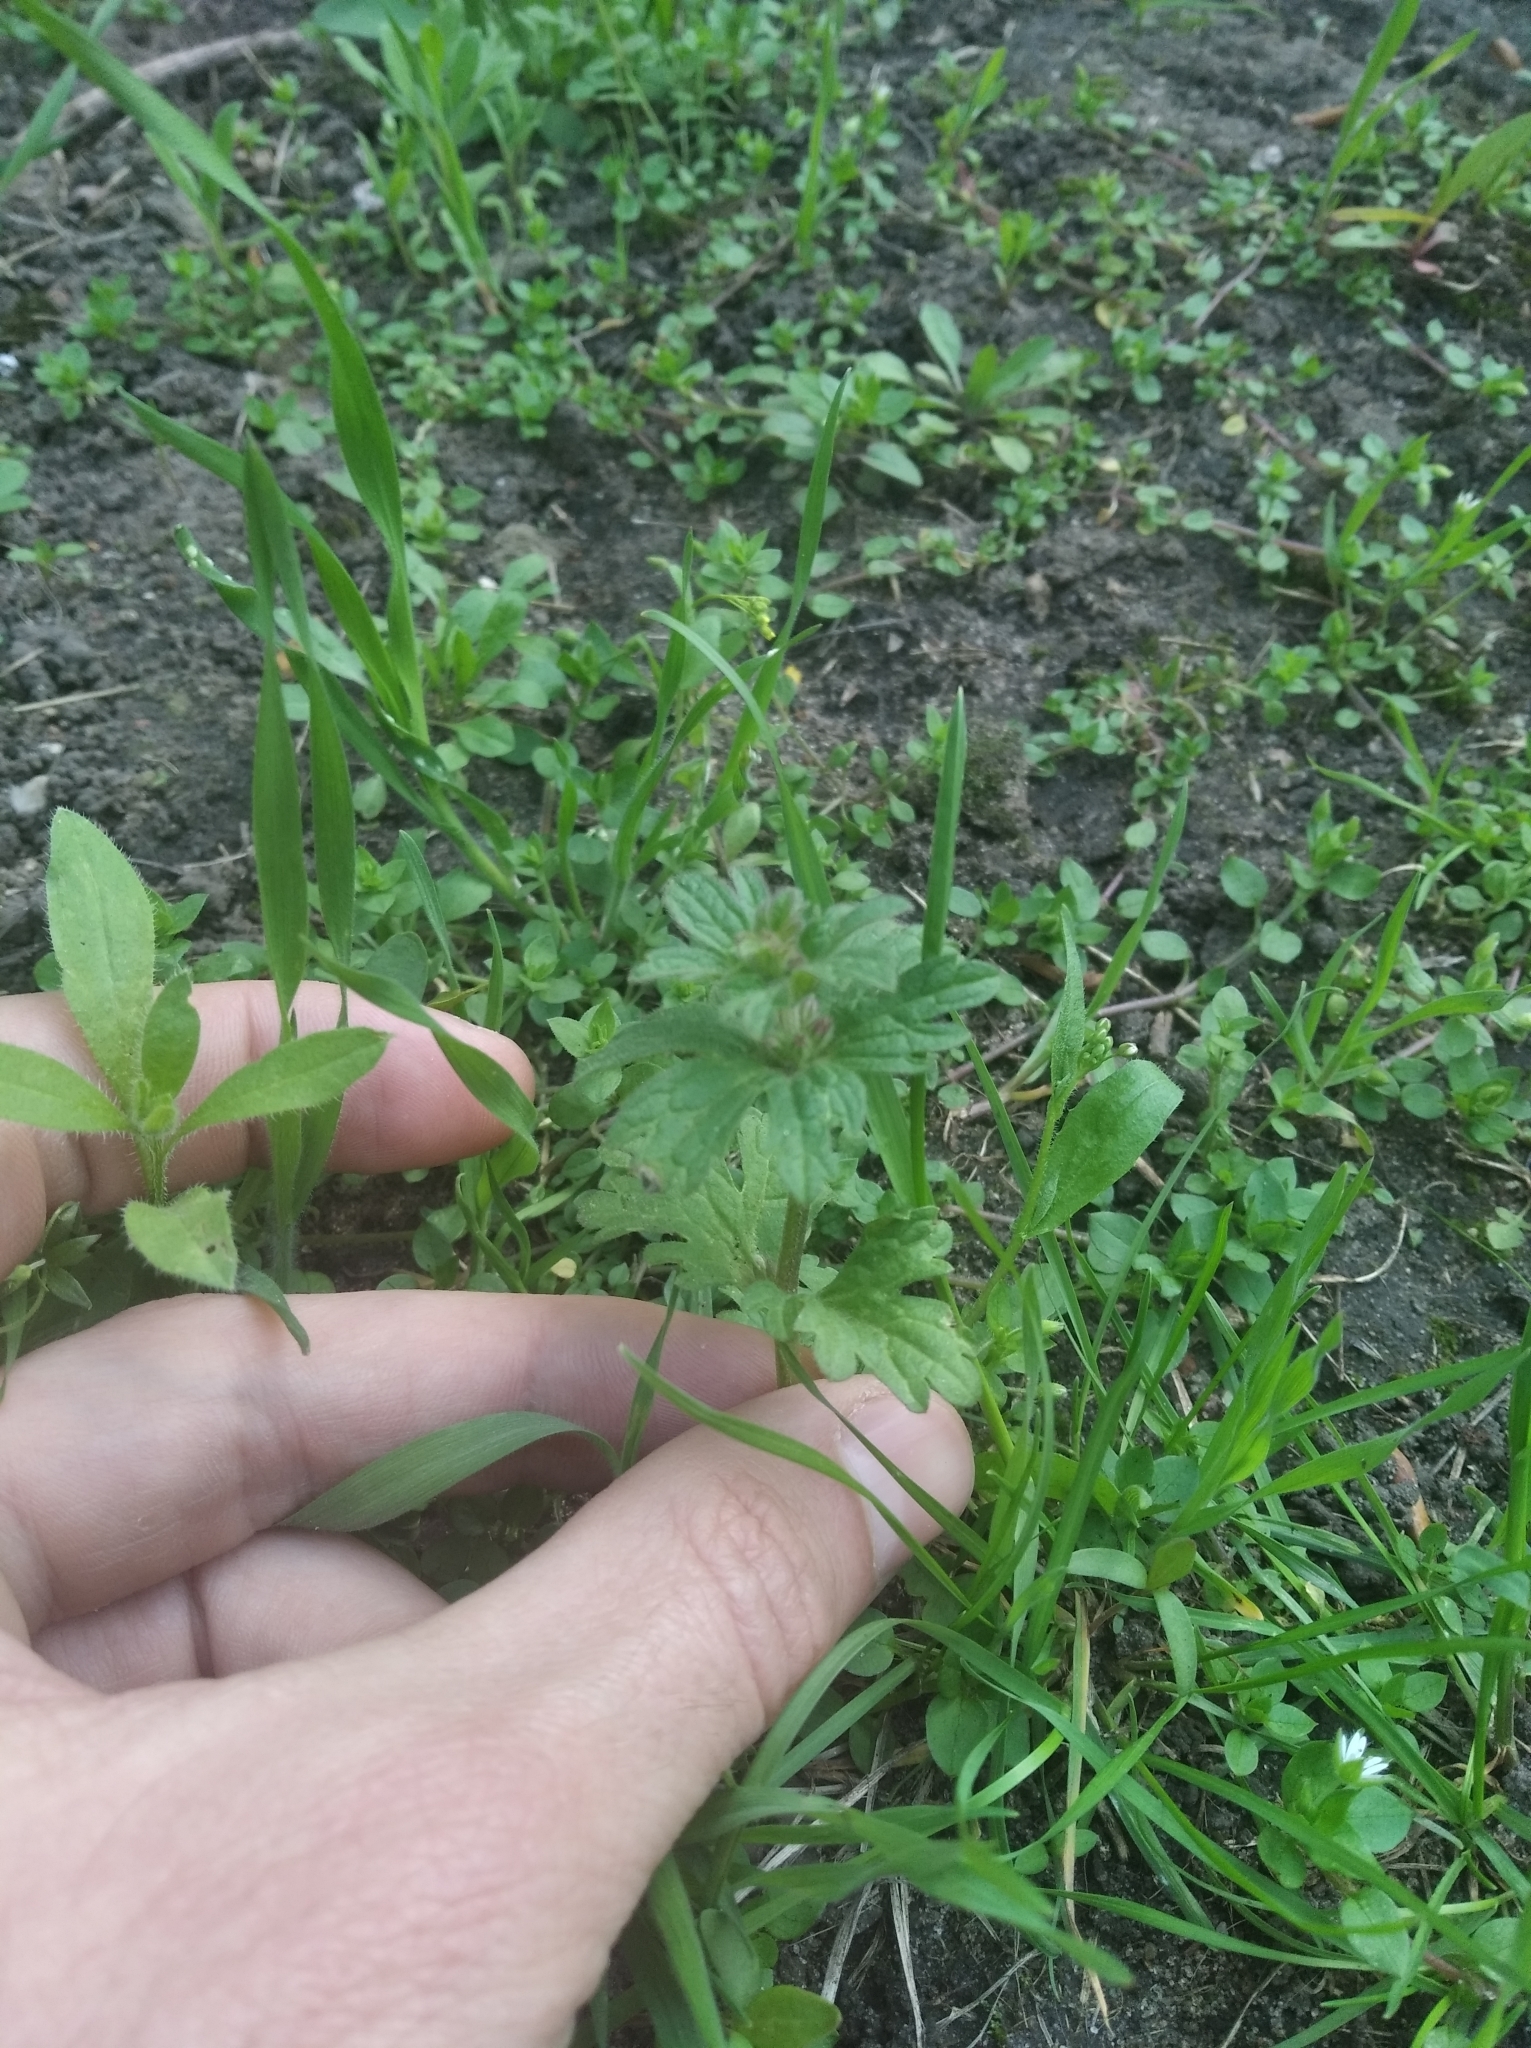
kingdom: Plantae
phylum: Tracheophyta
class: Magnoliopsida
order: Lamiales
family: Lamiaceae
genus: Lamium
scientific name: Lamium amplexicaule
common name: Henbit dead-nettle
